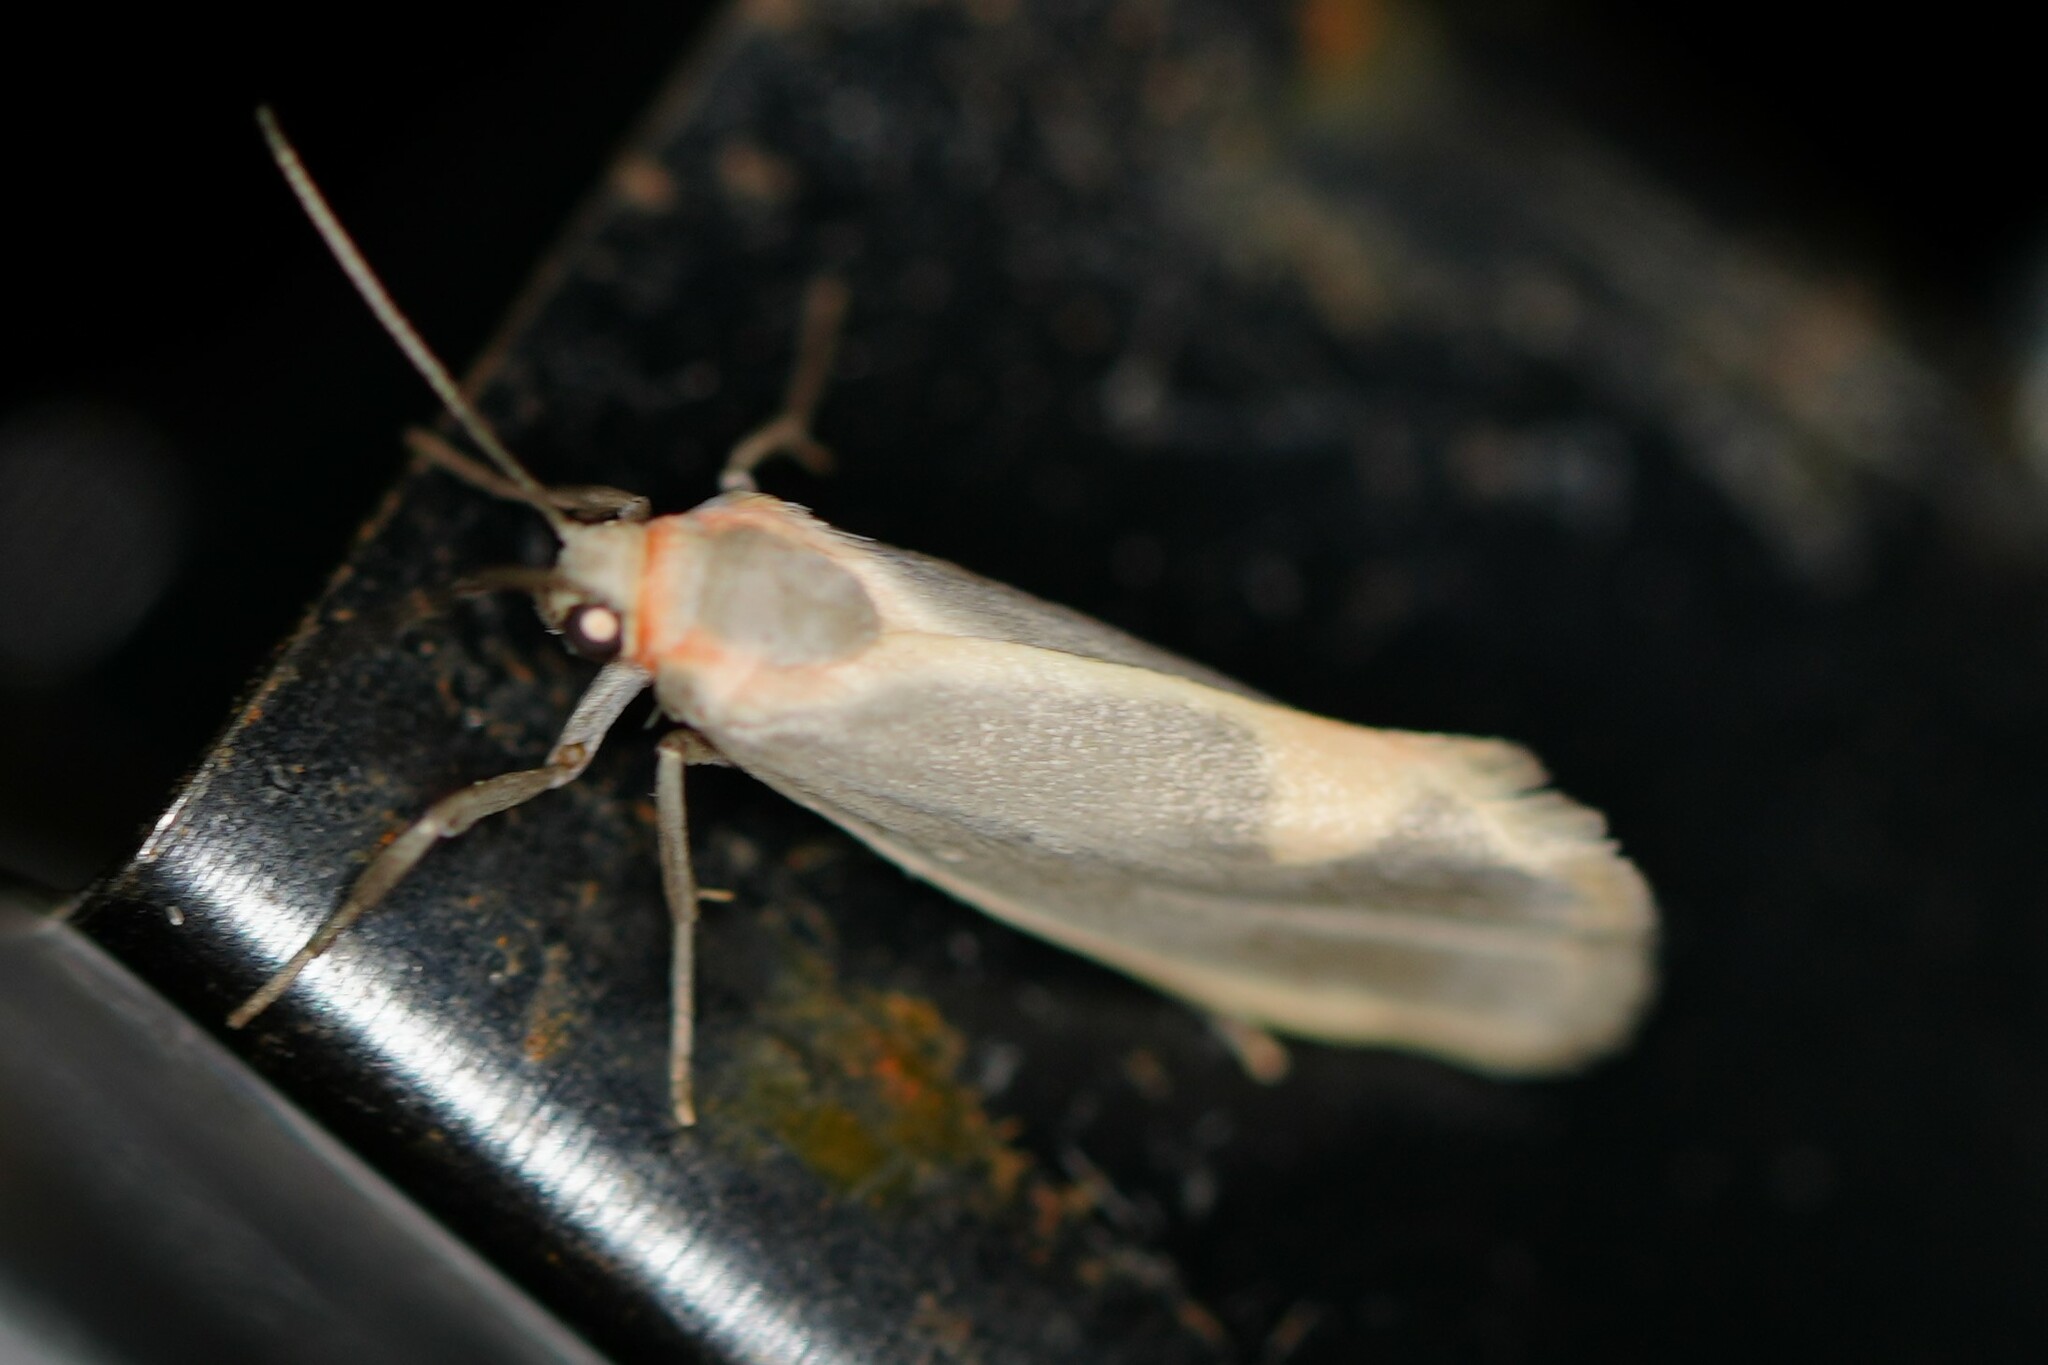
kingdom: Animalia
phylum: Arthropoda
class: Insecta
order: Lepidoptera
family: Erebidae
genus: Cisthene
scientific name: Cisthene plumbea
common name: Lead colored lichen moth
